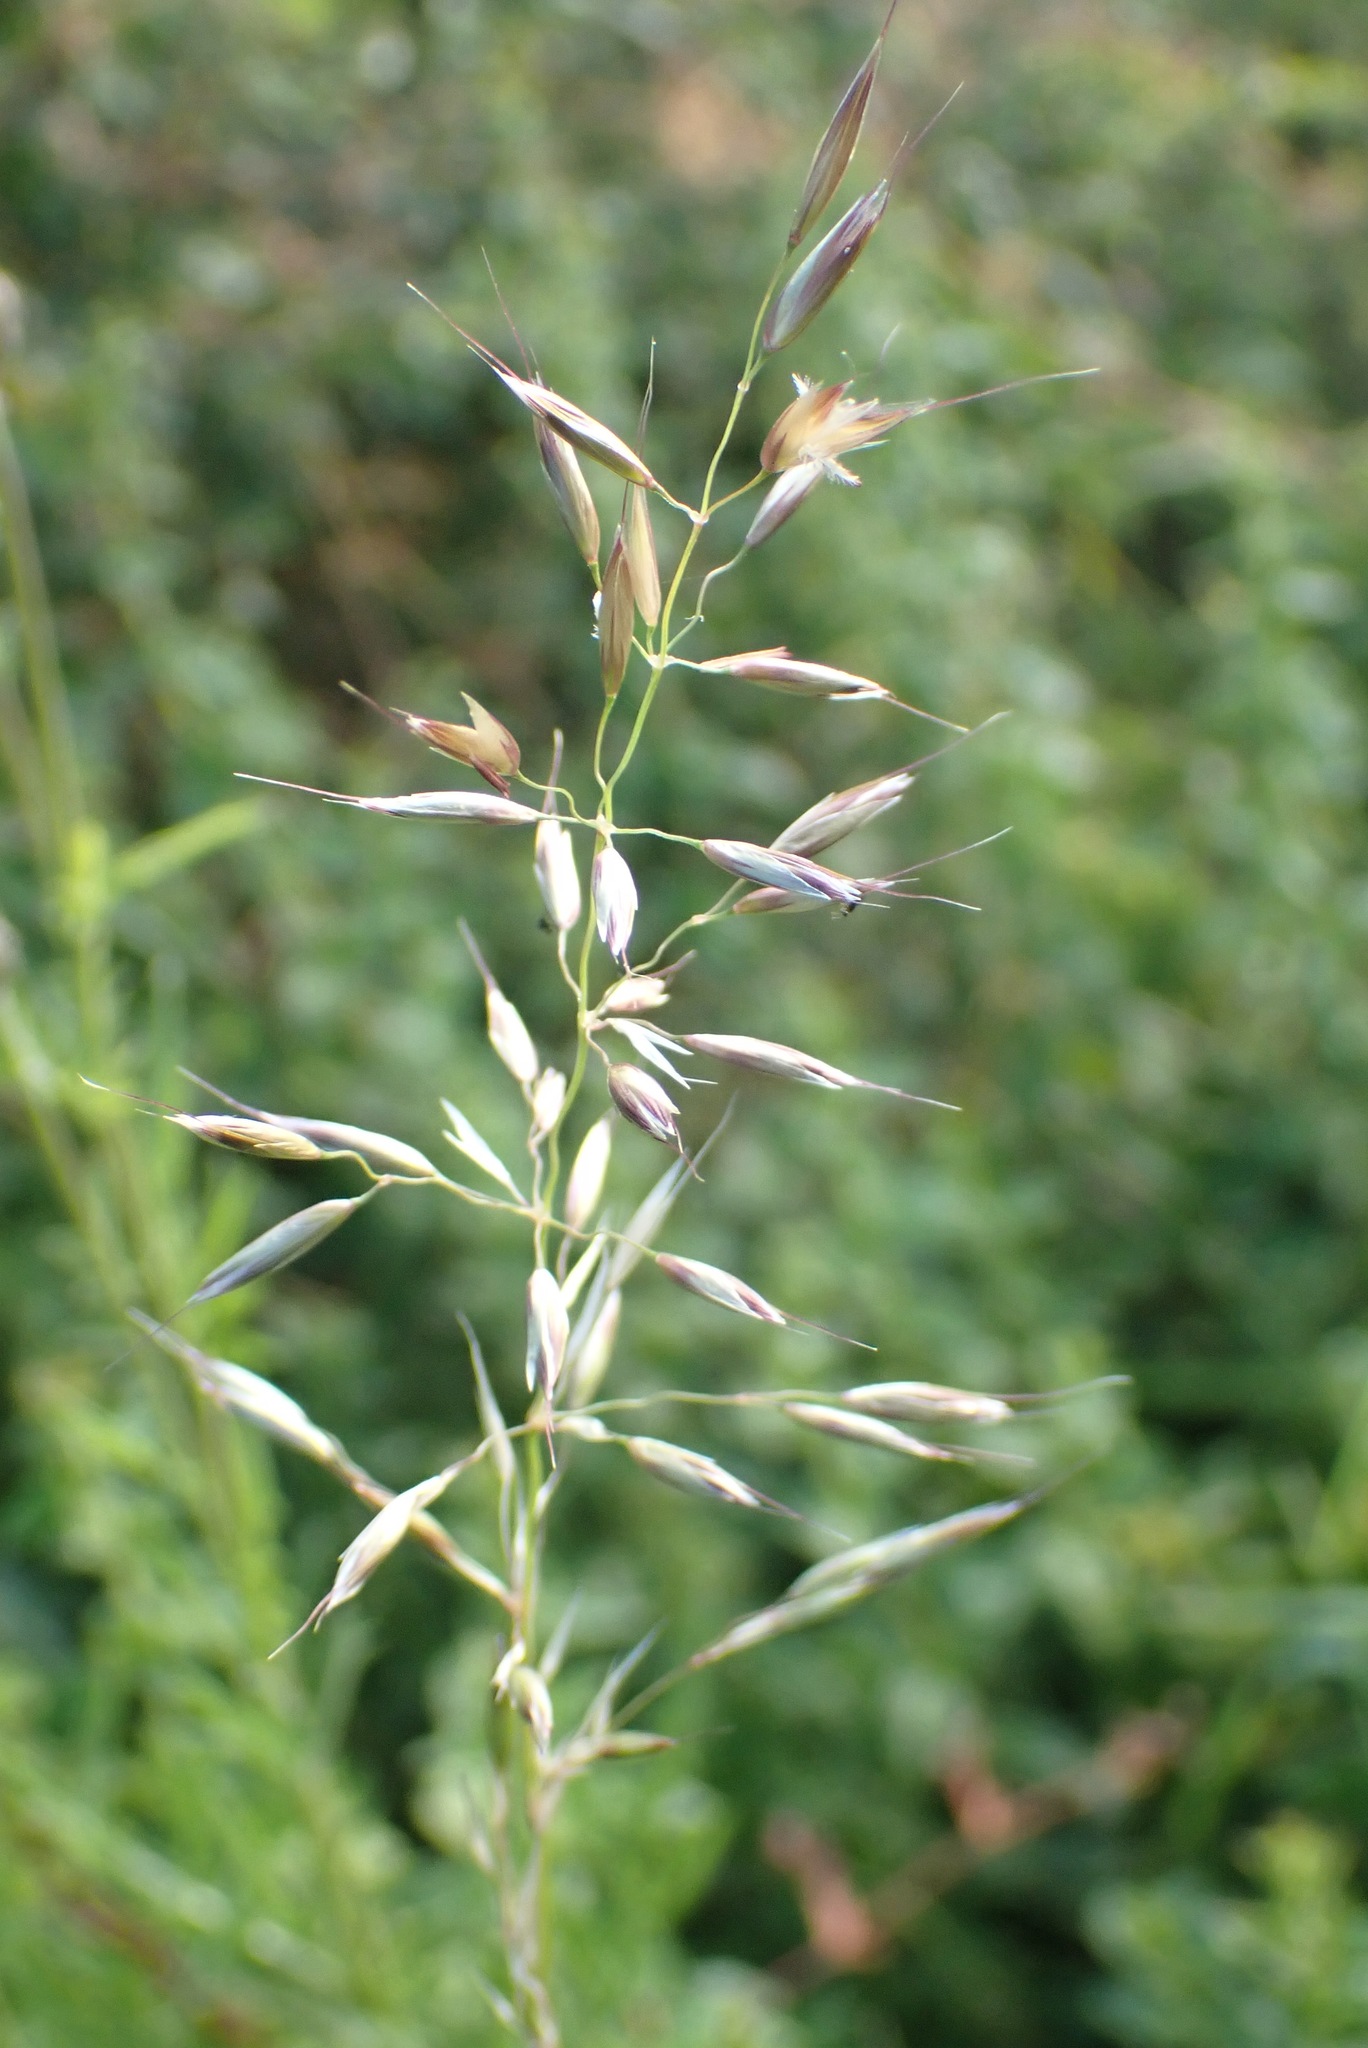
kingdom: Plantae
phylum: Tracheophyta
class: Liliopsida
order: Poales
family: Poaceae
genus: Arrhenatherum
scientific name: Arrhenatherum elatius
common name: Tall oatgrass
